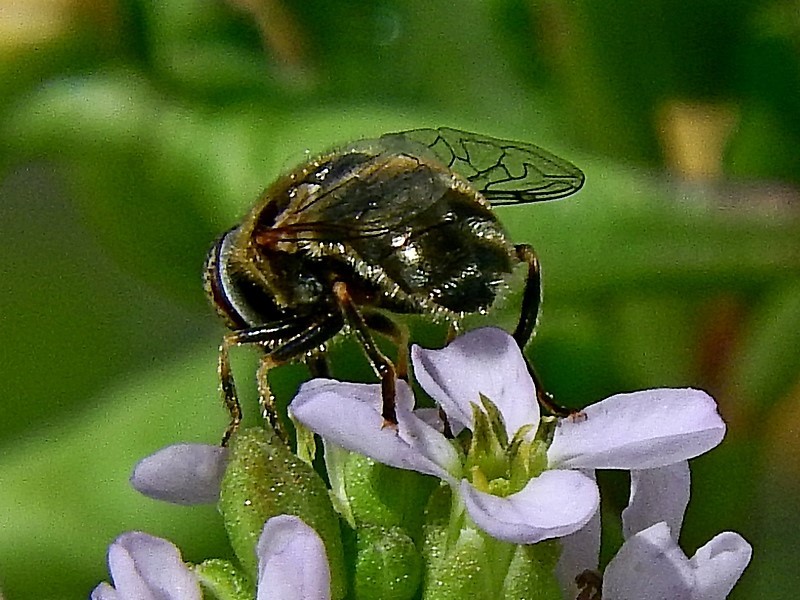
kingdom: Animalia
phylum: Arthropoda
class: Insecta
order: Diptera
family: Syrphidae
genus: Eristalinus
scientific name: Eristalinus aeneus
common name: Syrphid fly
